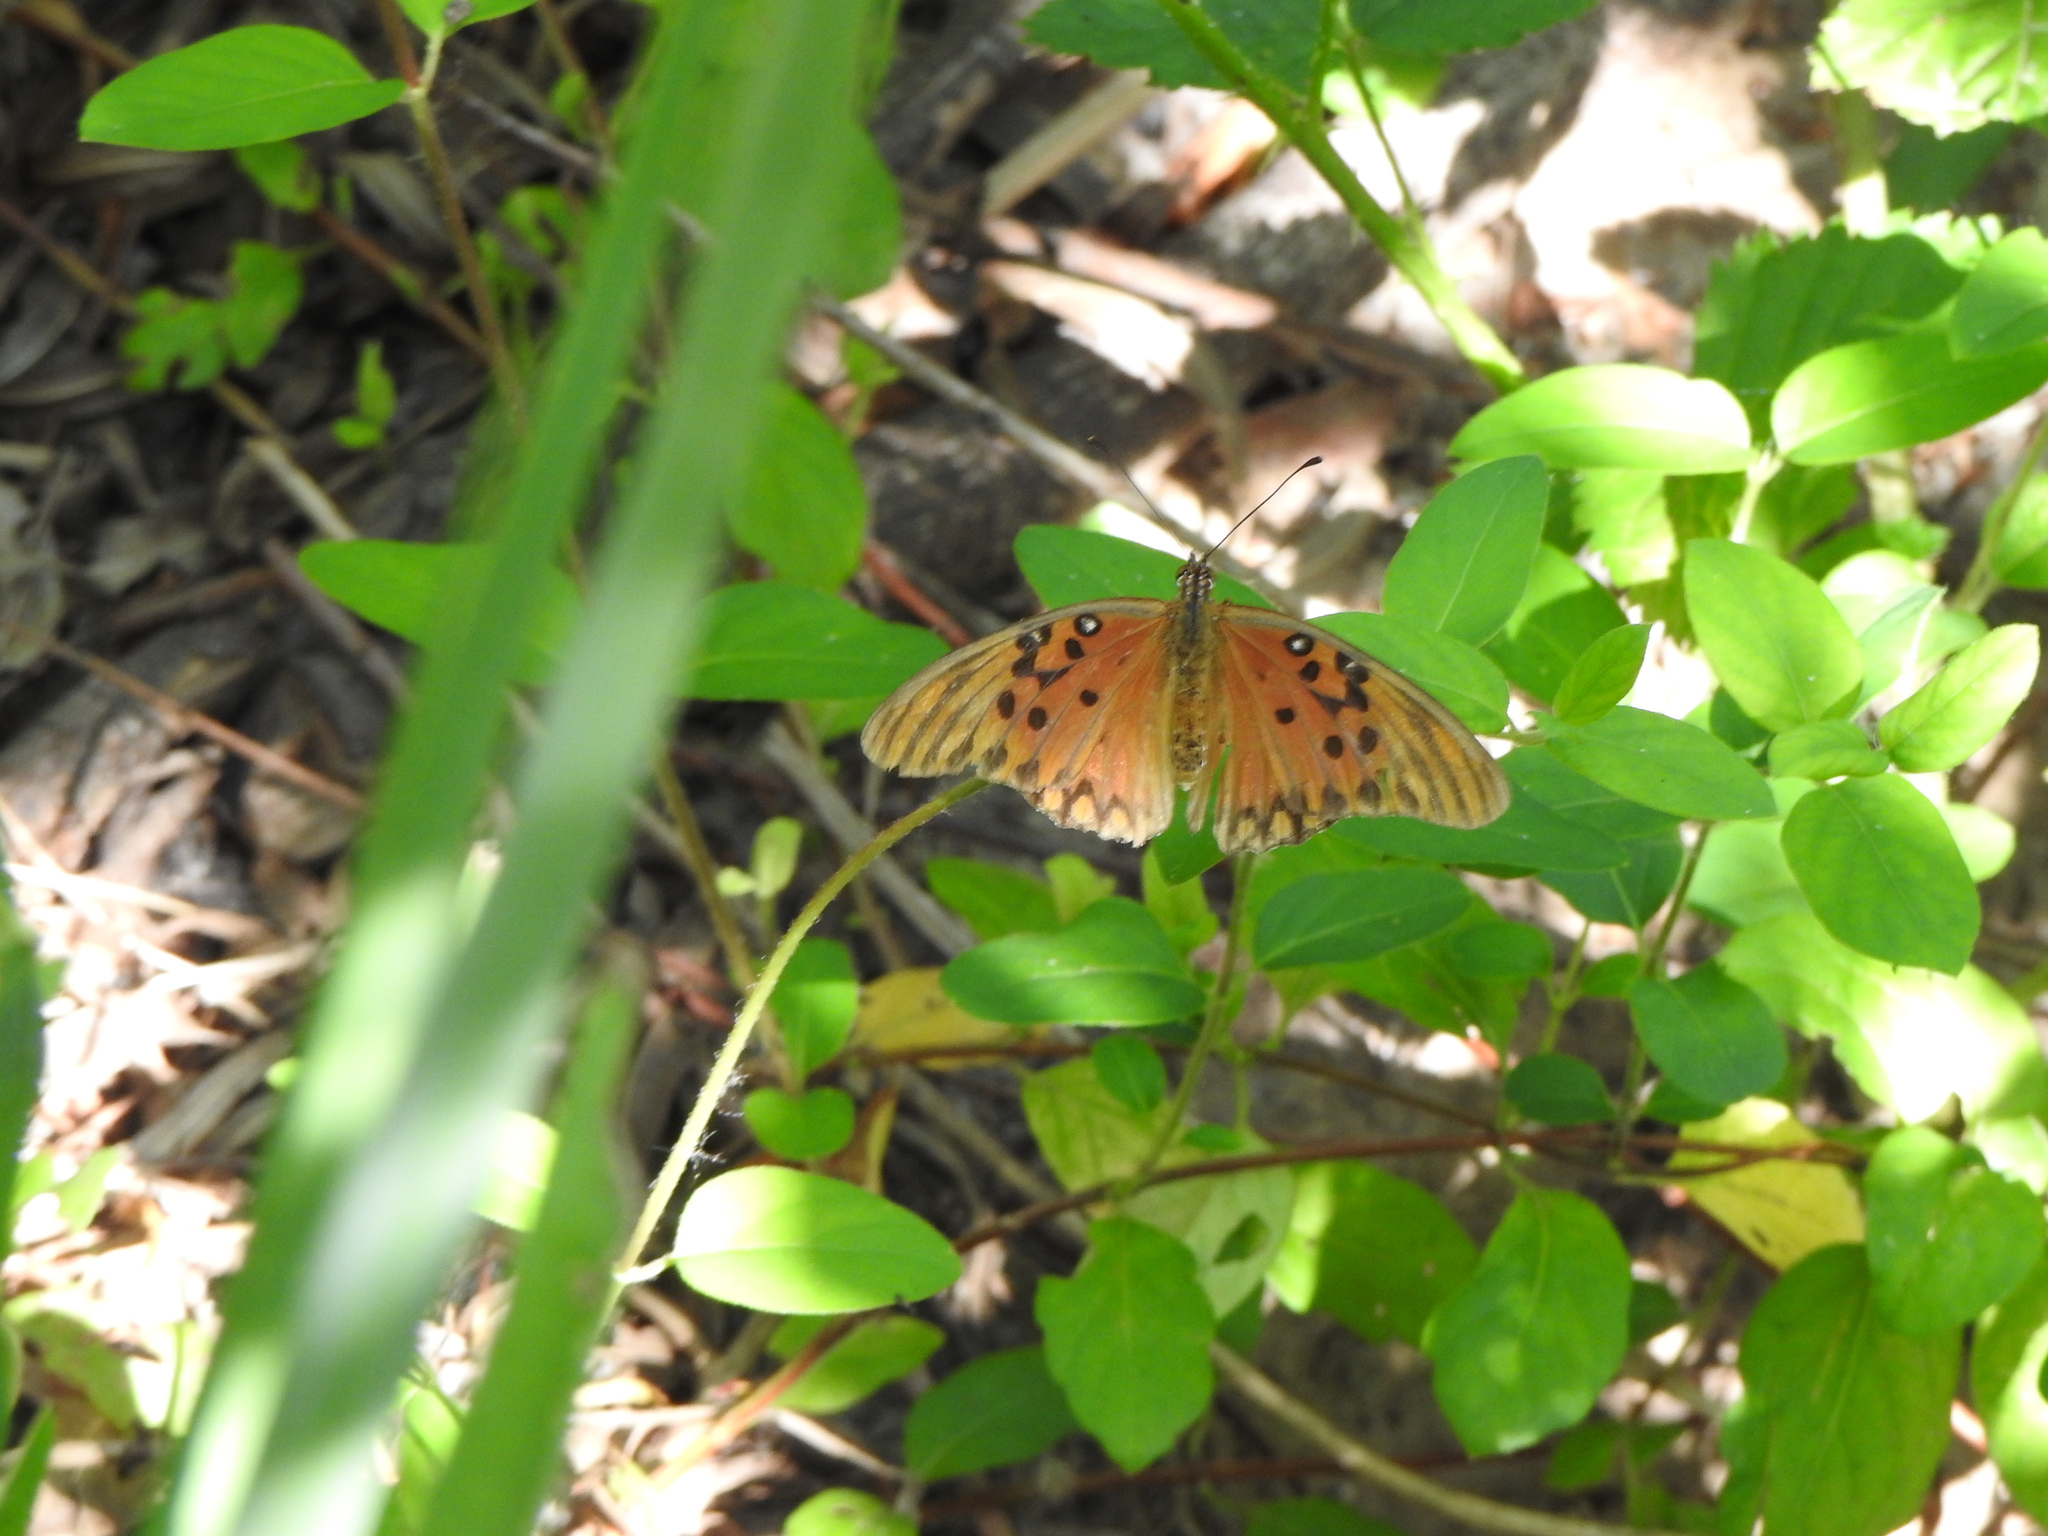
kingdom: Animalia
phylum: Arthropoda
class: Insecta
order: Lepidoptera
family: Nymphalidae
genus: Dione
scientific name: Dione vanillae
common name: Gulf fritillary
